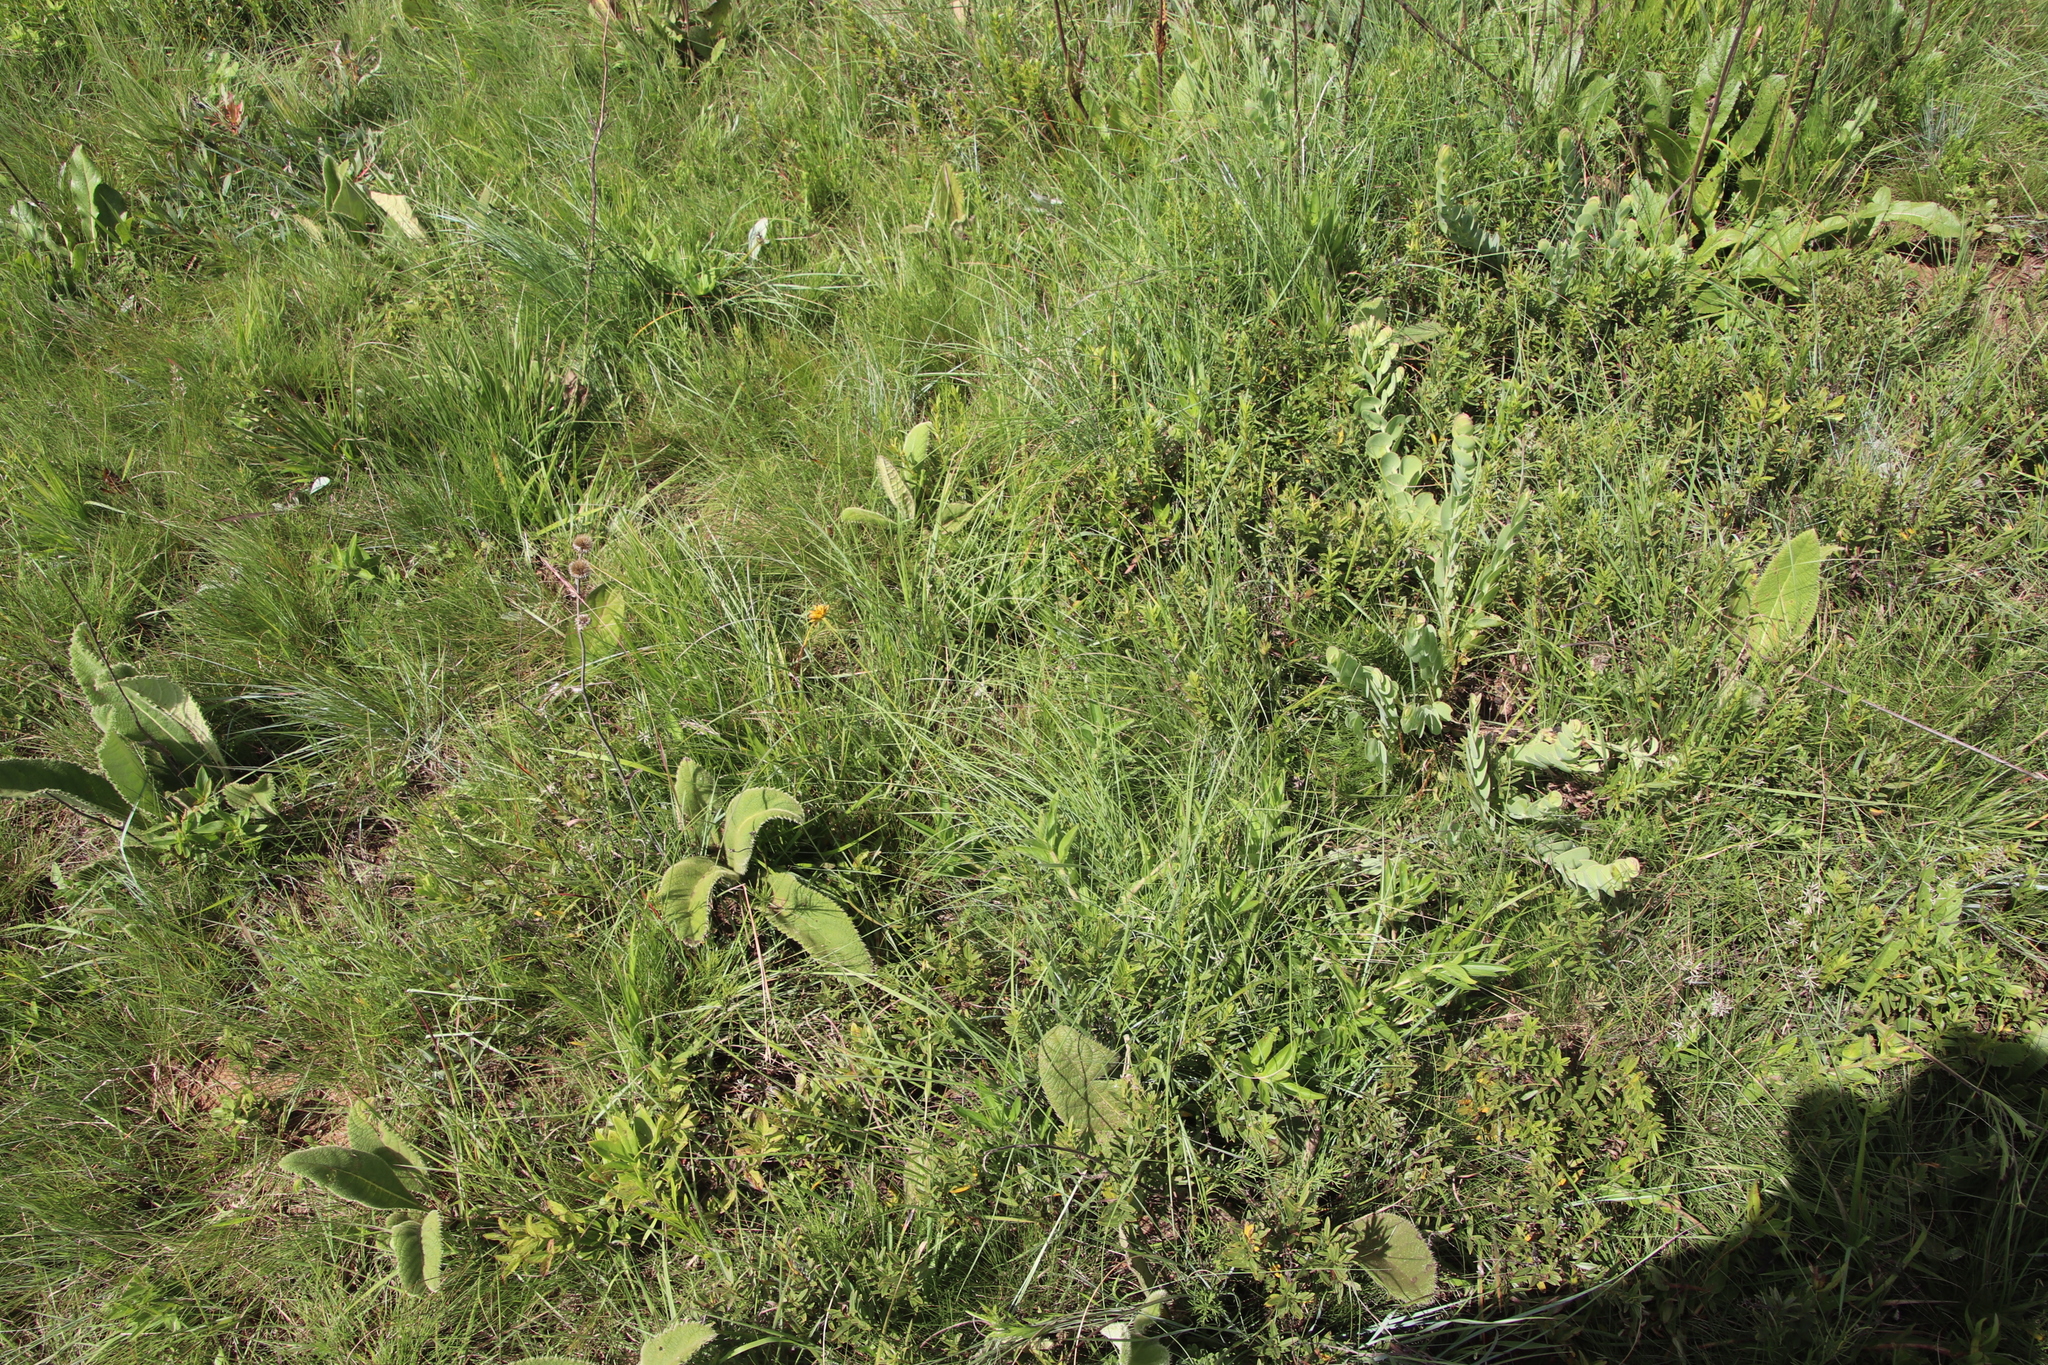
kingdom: Plantae
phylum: Tracheophyta
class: Liliopsida
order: Poales
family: Cyperaceae
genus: Cyperus
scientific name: Cyperus sphaerocephalus
